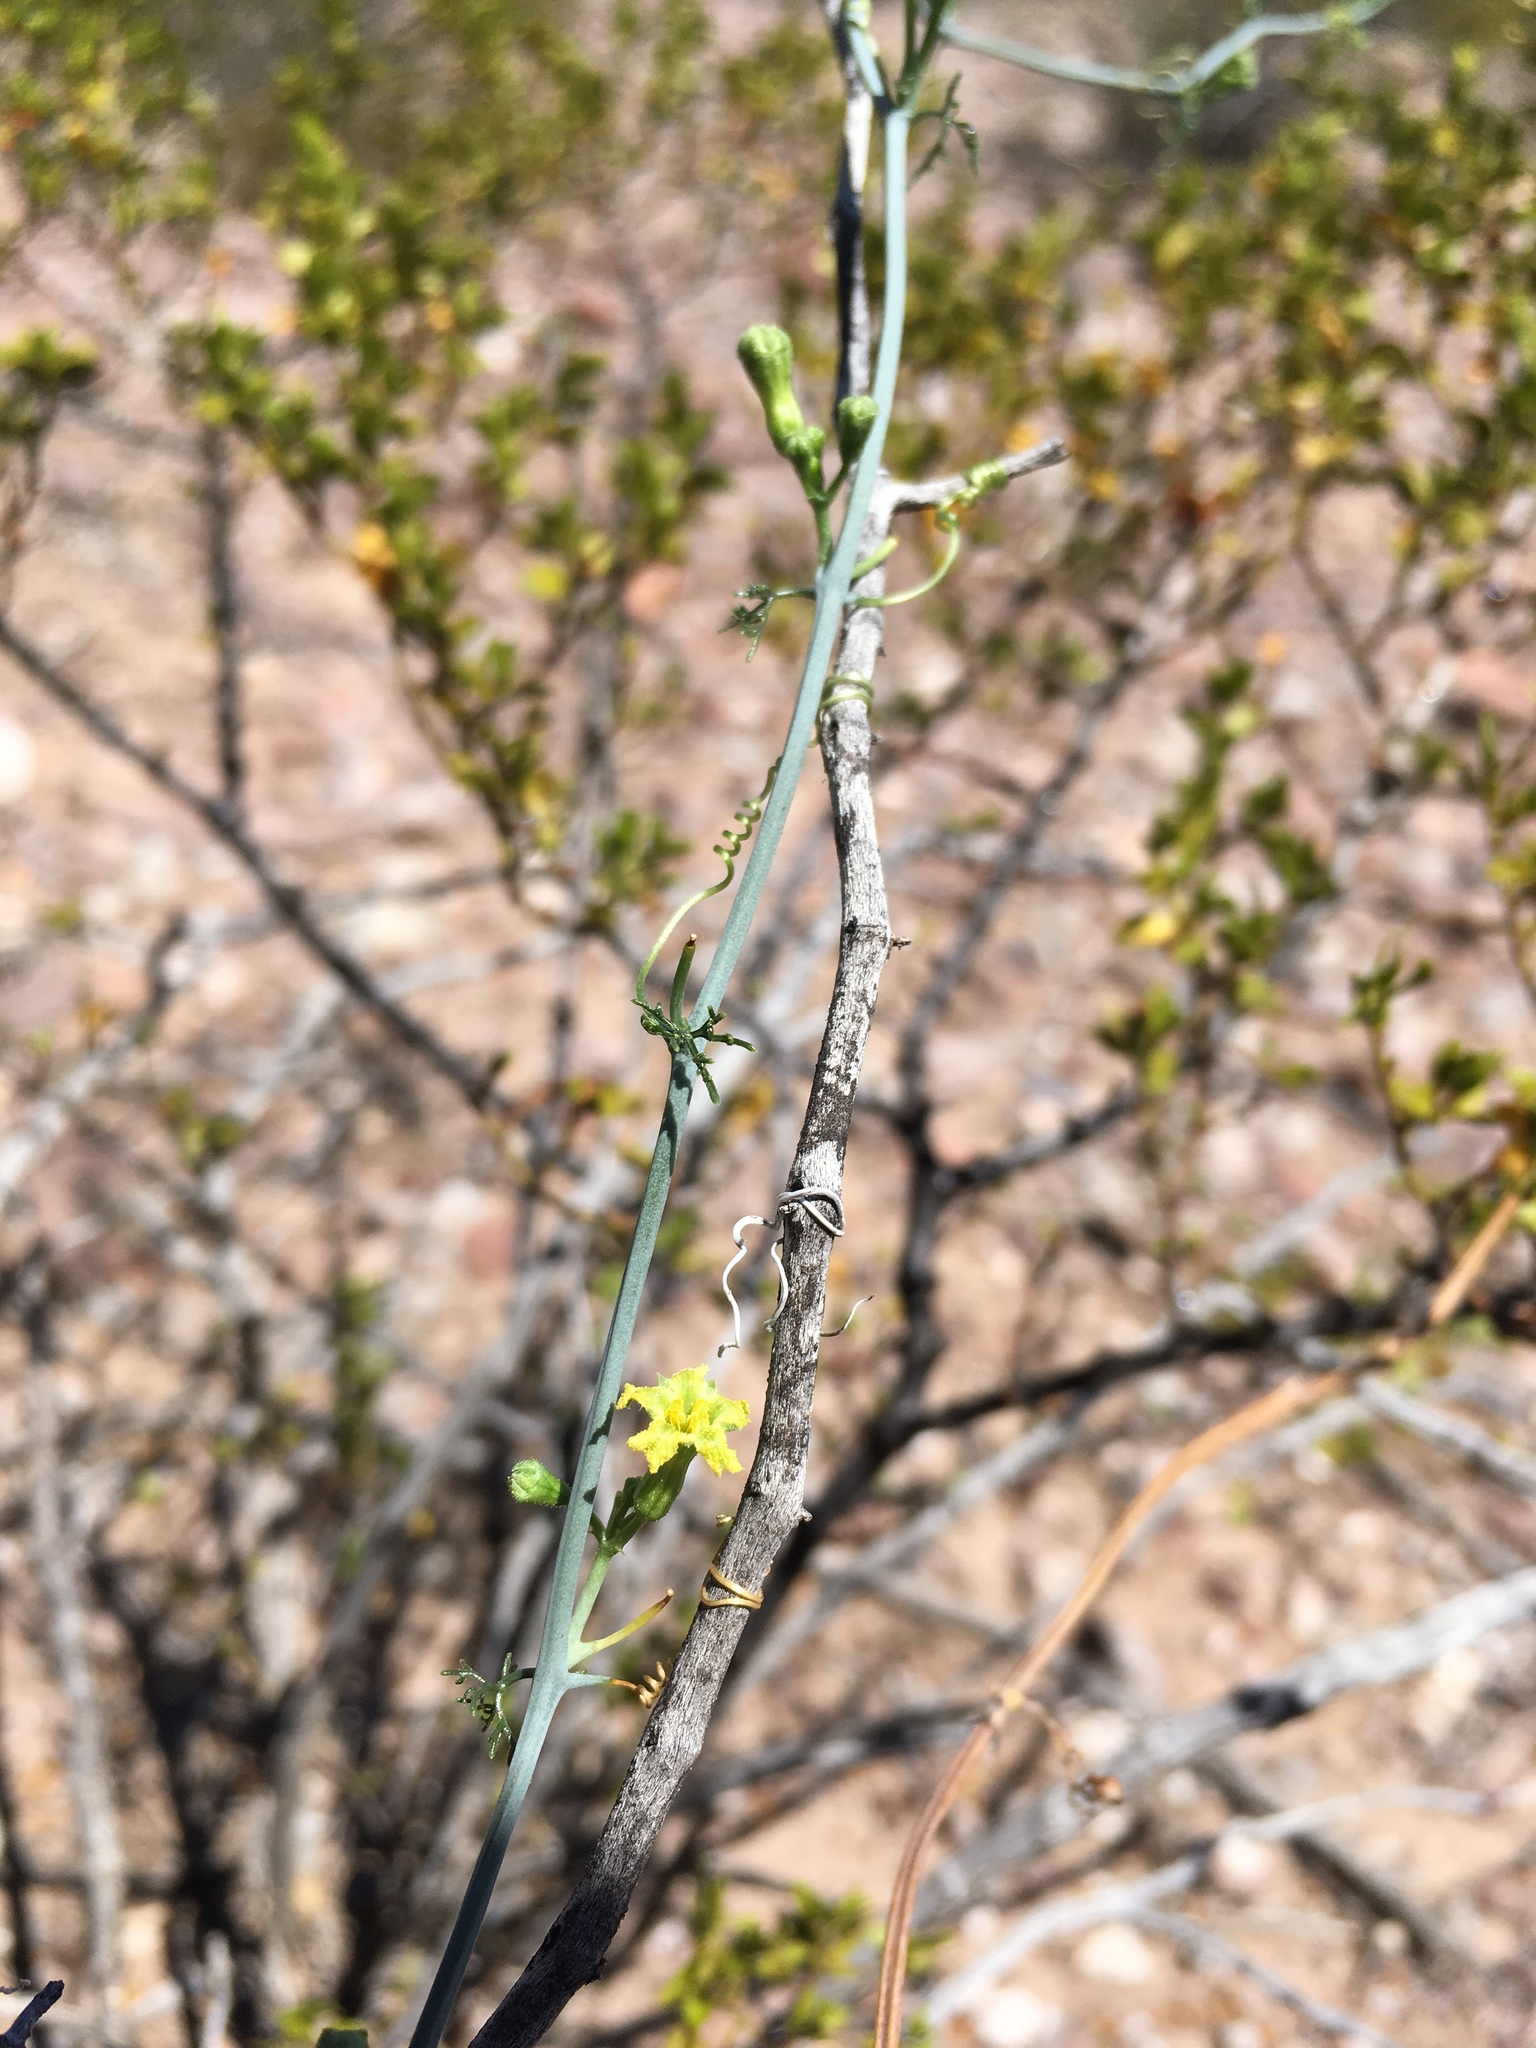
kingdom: Plantae
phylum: Tracheophyta
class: Magnoliopsida
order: Cucurbitales
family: Cucurbitaceae
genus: Ibervillea
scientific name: Ibervillea tenuisecta
